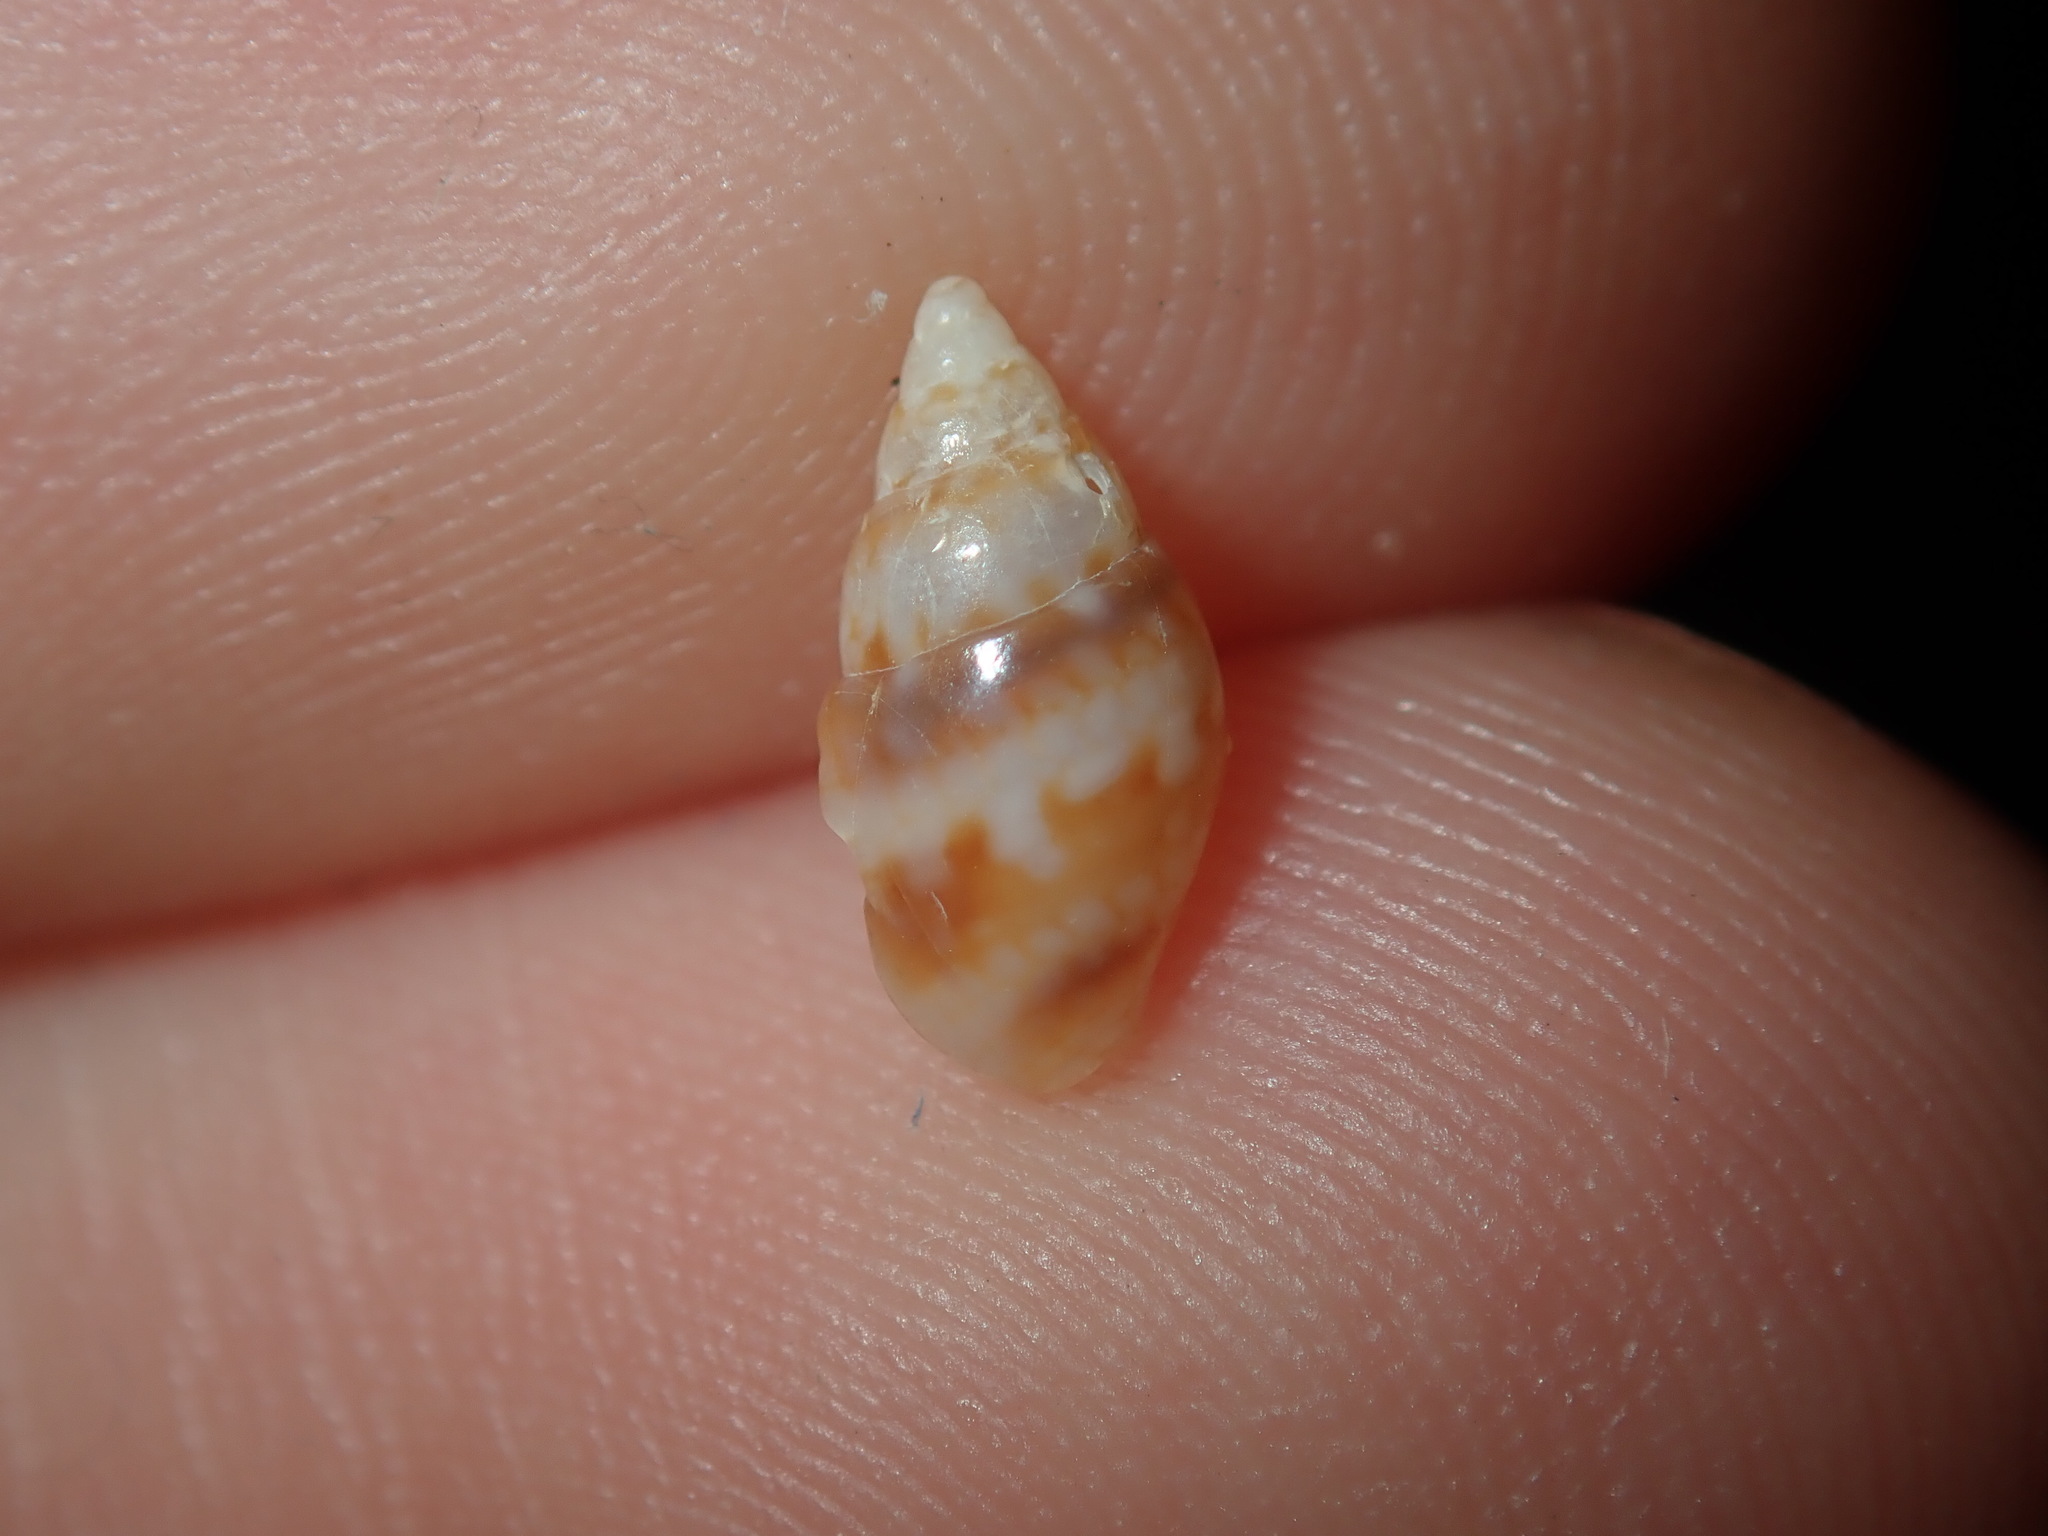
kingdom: Animalia
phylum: Mollusca
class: Gastropoda
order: Neogastropoda
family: Columbellidae
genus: Pseudamycla
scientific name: Pseudamycla dermestoidea
